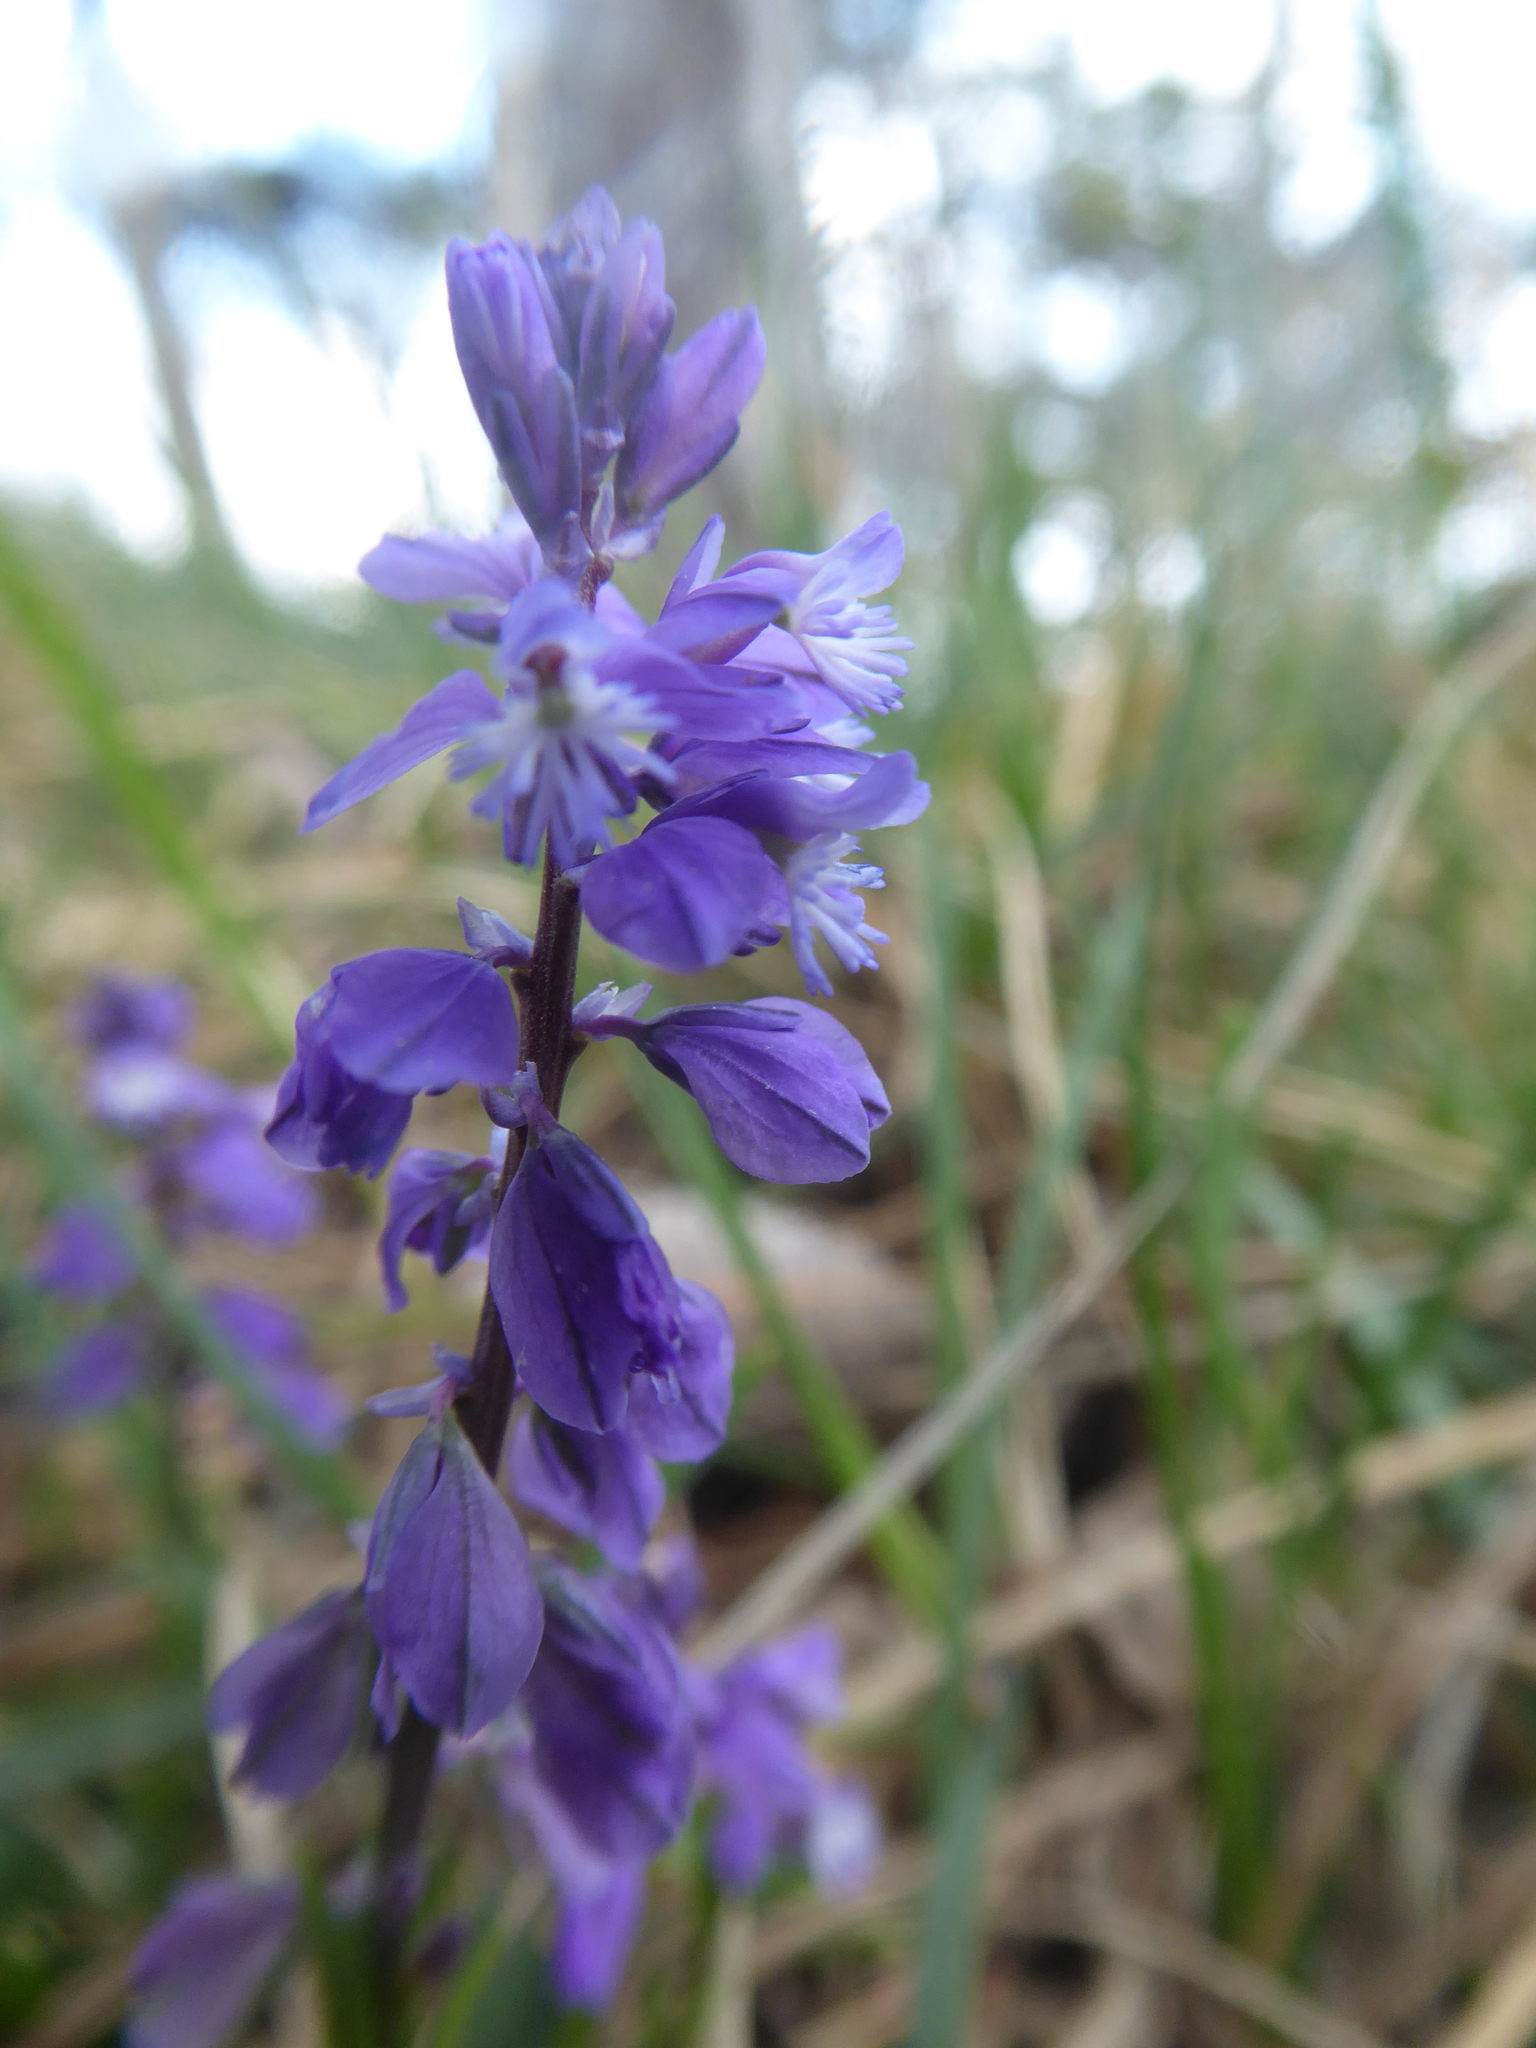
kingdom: Plantae
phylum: Tracheophyta
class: Magnoliopsida
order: Fabales
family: Polygalaceae
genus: Polygala
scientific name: Polygala amara
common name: Milkwort
